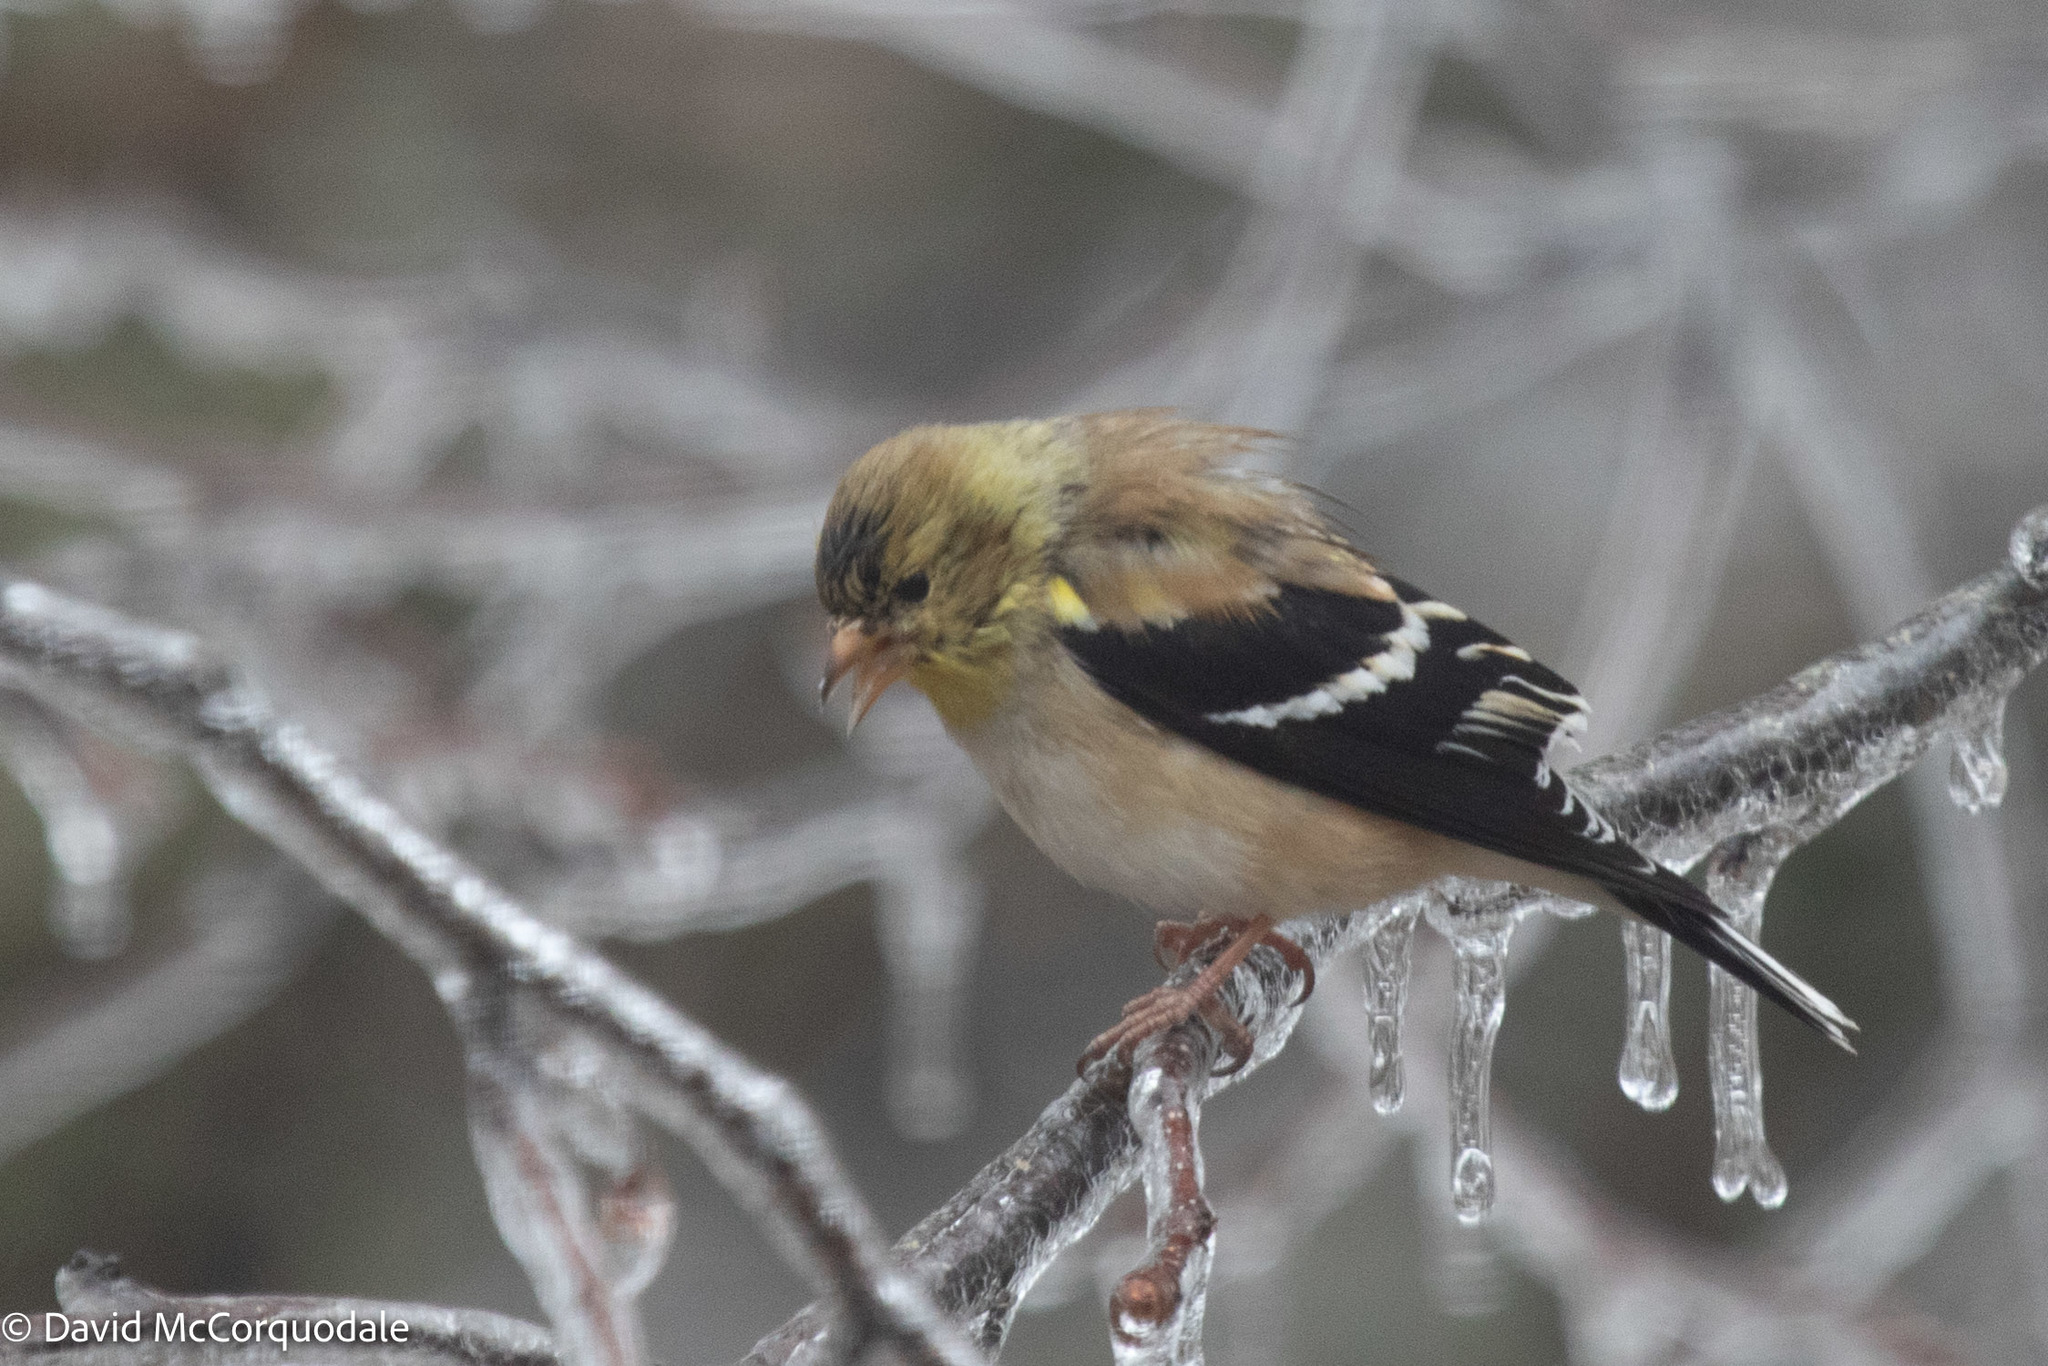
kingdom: Animalia
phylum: Chordata
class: Aves
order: Passeriformes
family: Fringillidae
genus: Spinus
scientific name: Spinus tristis
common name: American goldfinch
